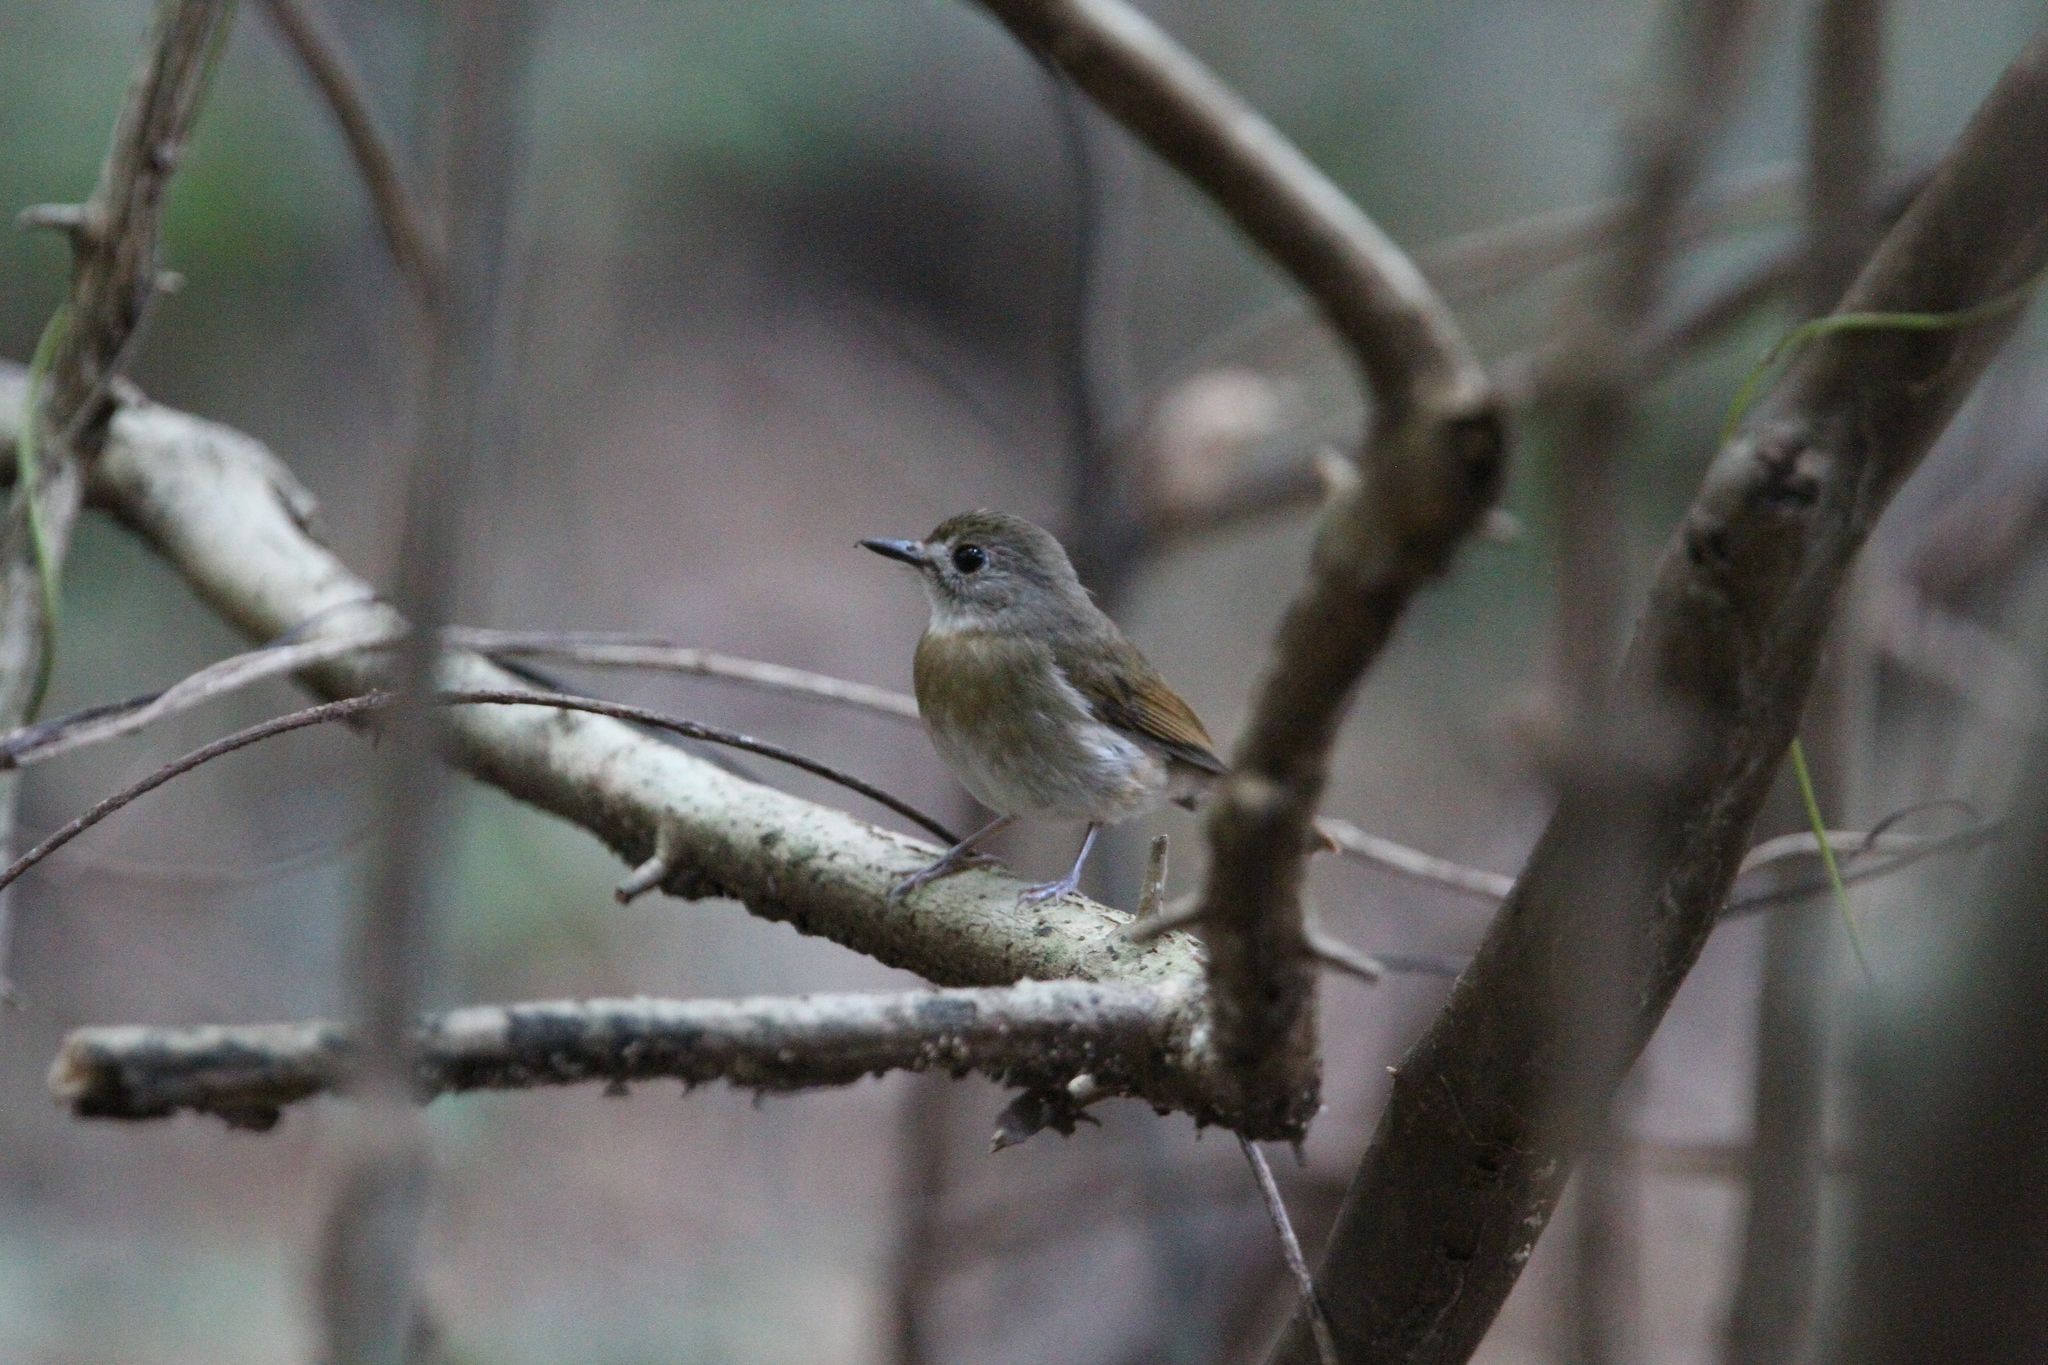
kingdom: Animalia
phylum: Chordata
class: Aves
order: Passeriformes
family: Muscicapidae
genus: Rhinomyias
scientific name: Rhinomyias olivaceus
